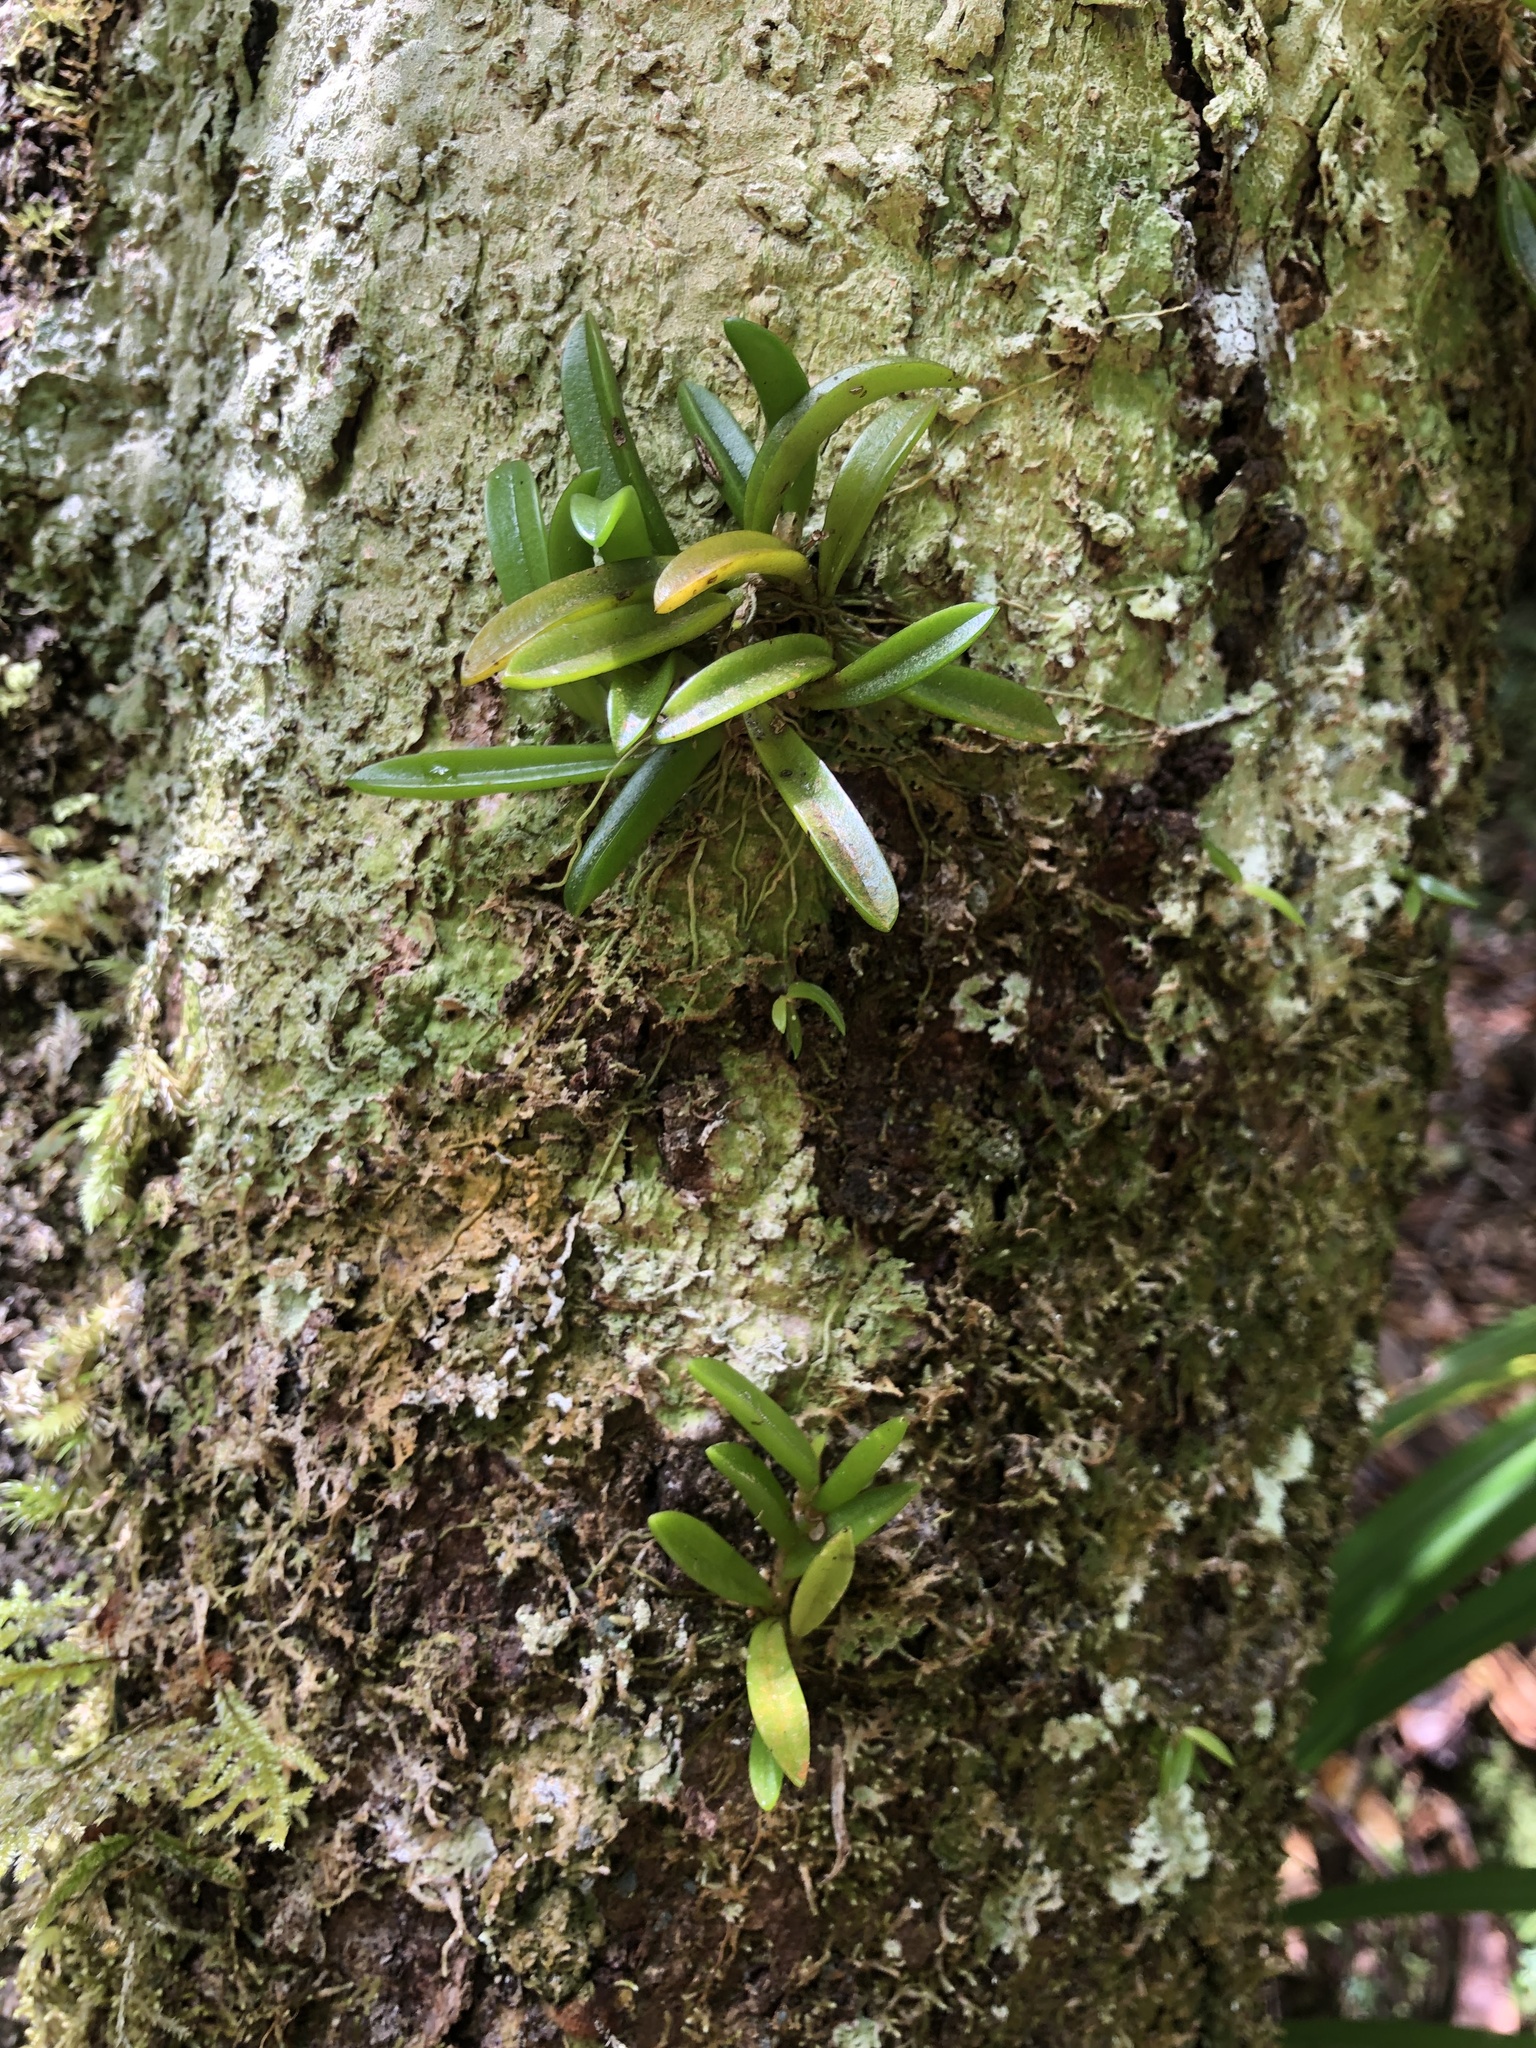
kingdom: Plantae
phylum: Tracheophyta
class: Liliopsida
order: Asparagales
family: Orchidaceae
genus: Bulbophyllum
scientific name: Bulbophyllum shepherdii
